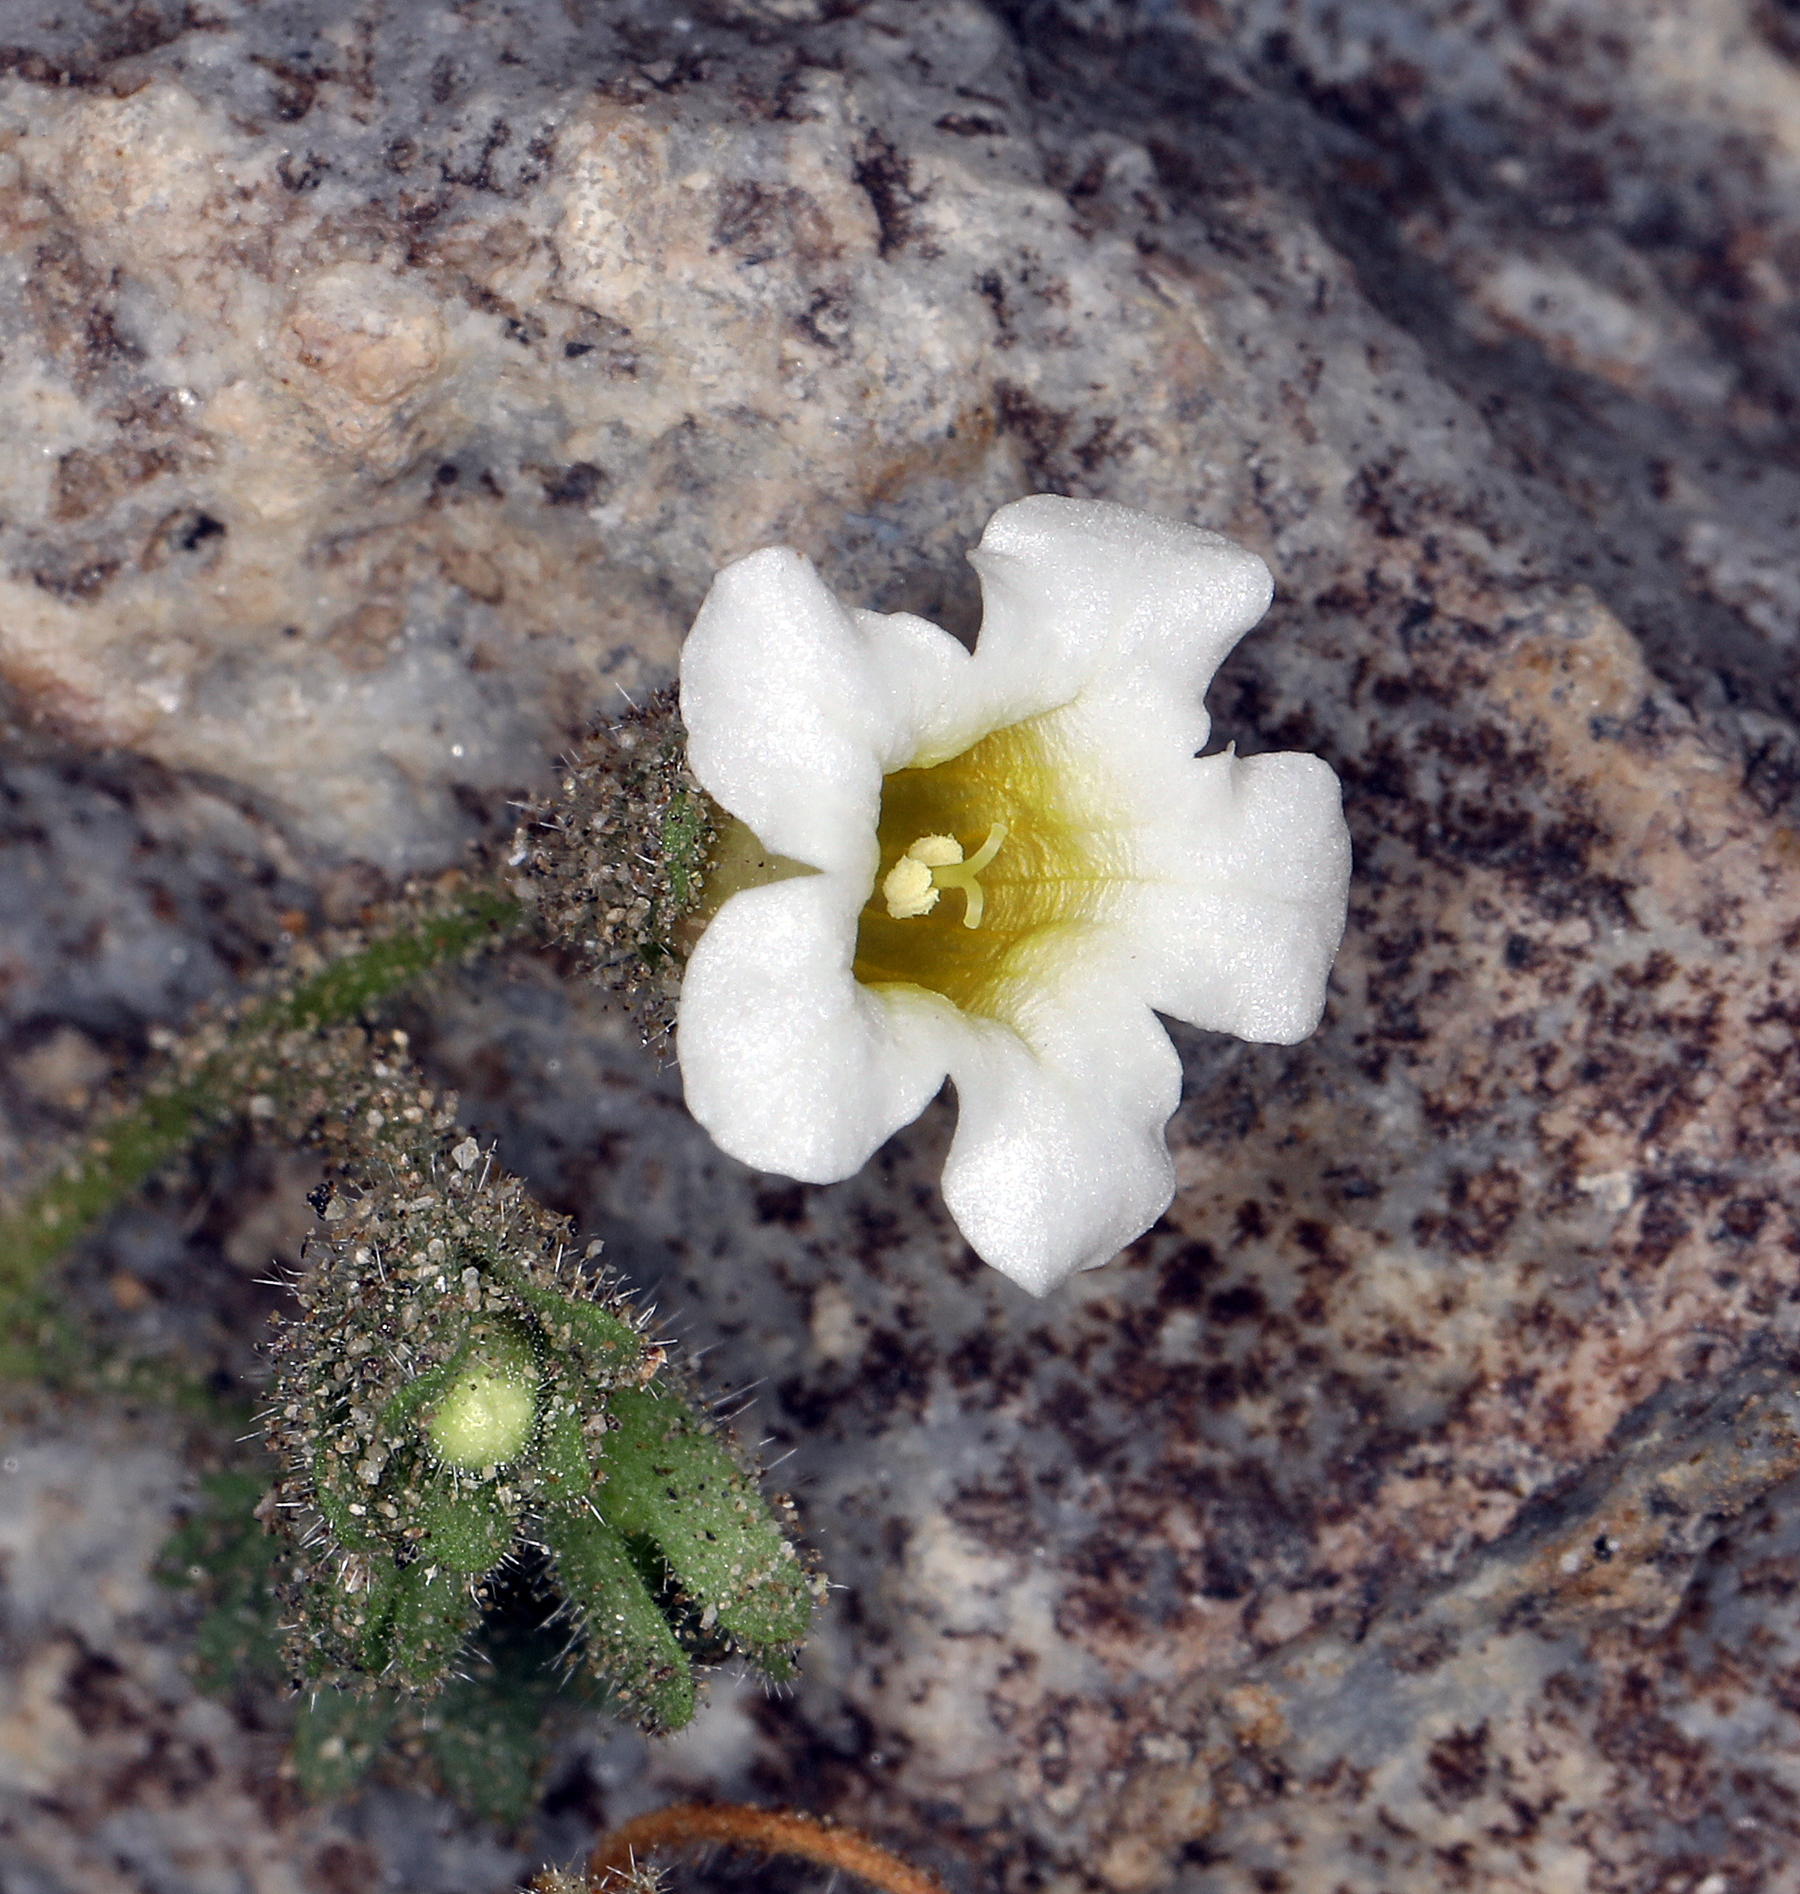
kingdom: Plantae
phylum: Tracheophyta
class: Magnoliopsida
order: Boraginales
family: Hydrophyllaceae
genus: Phacelia
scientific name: Phacelia perityloides
